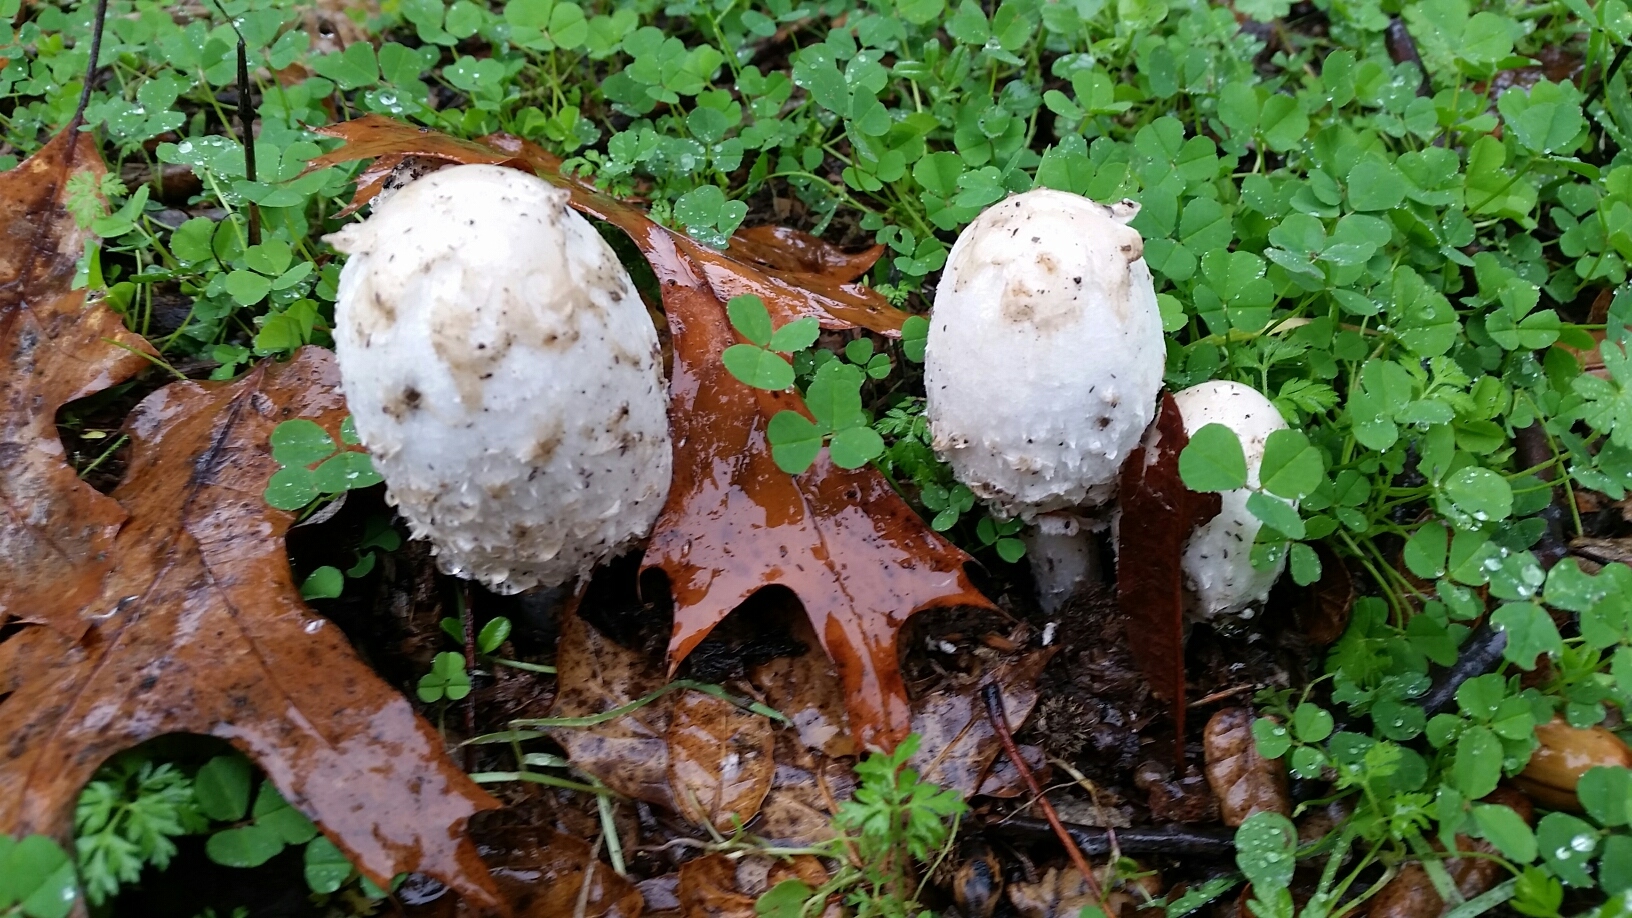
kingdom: Fungi
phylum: Basidiomycota
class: Agaricomycetes
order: Agaricales
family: Agaricaceae
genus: Coprinus
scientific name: Coprinus comatus
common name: Lawyer's wig
